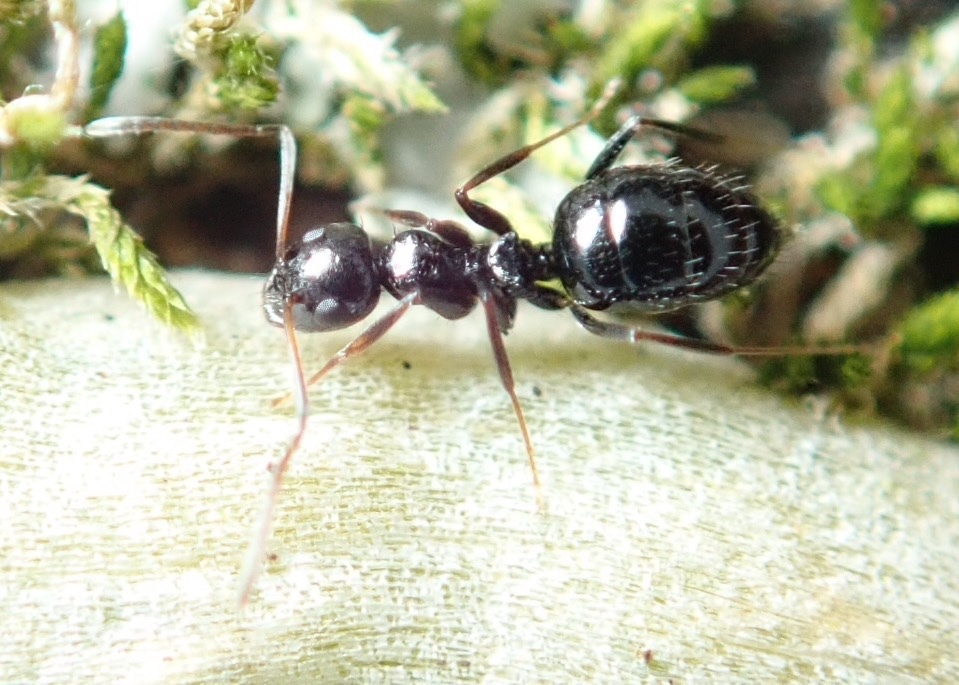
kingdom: Animalia
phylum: Arthropoda
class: Insecta
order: Hymenoptera
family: Formicidae
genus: Lepisiota
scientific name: Lepisiota capensis
